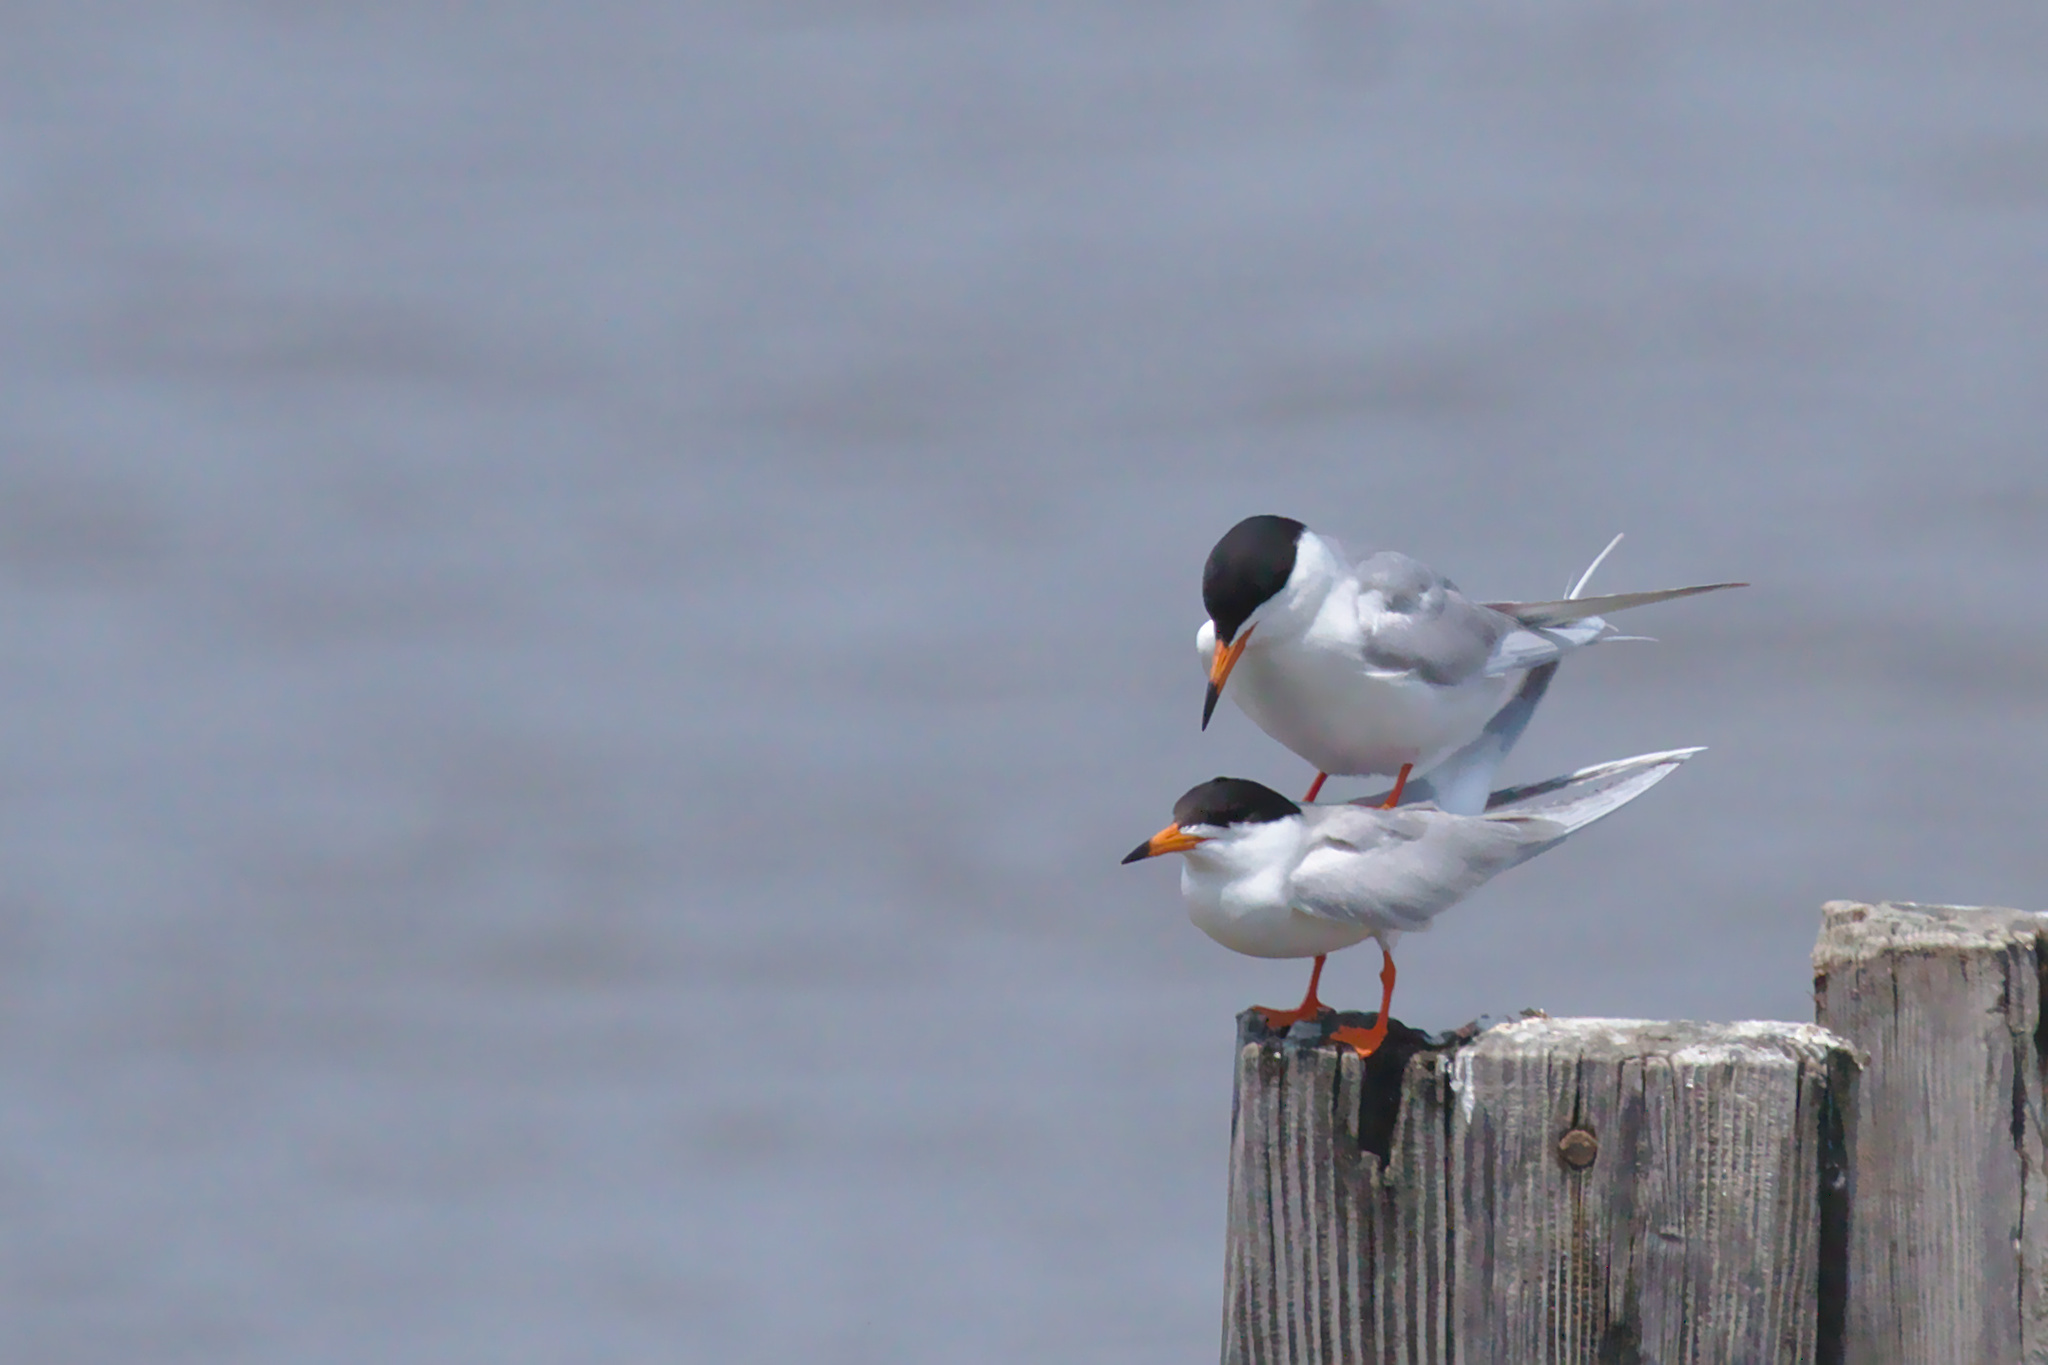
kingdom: Animalia
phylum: Chordata
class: Aves
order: Charadriiformes
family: Laridae
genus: Sterna
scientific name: Sterna forsteri
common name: Forster's tern
